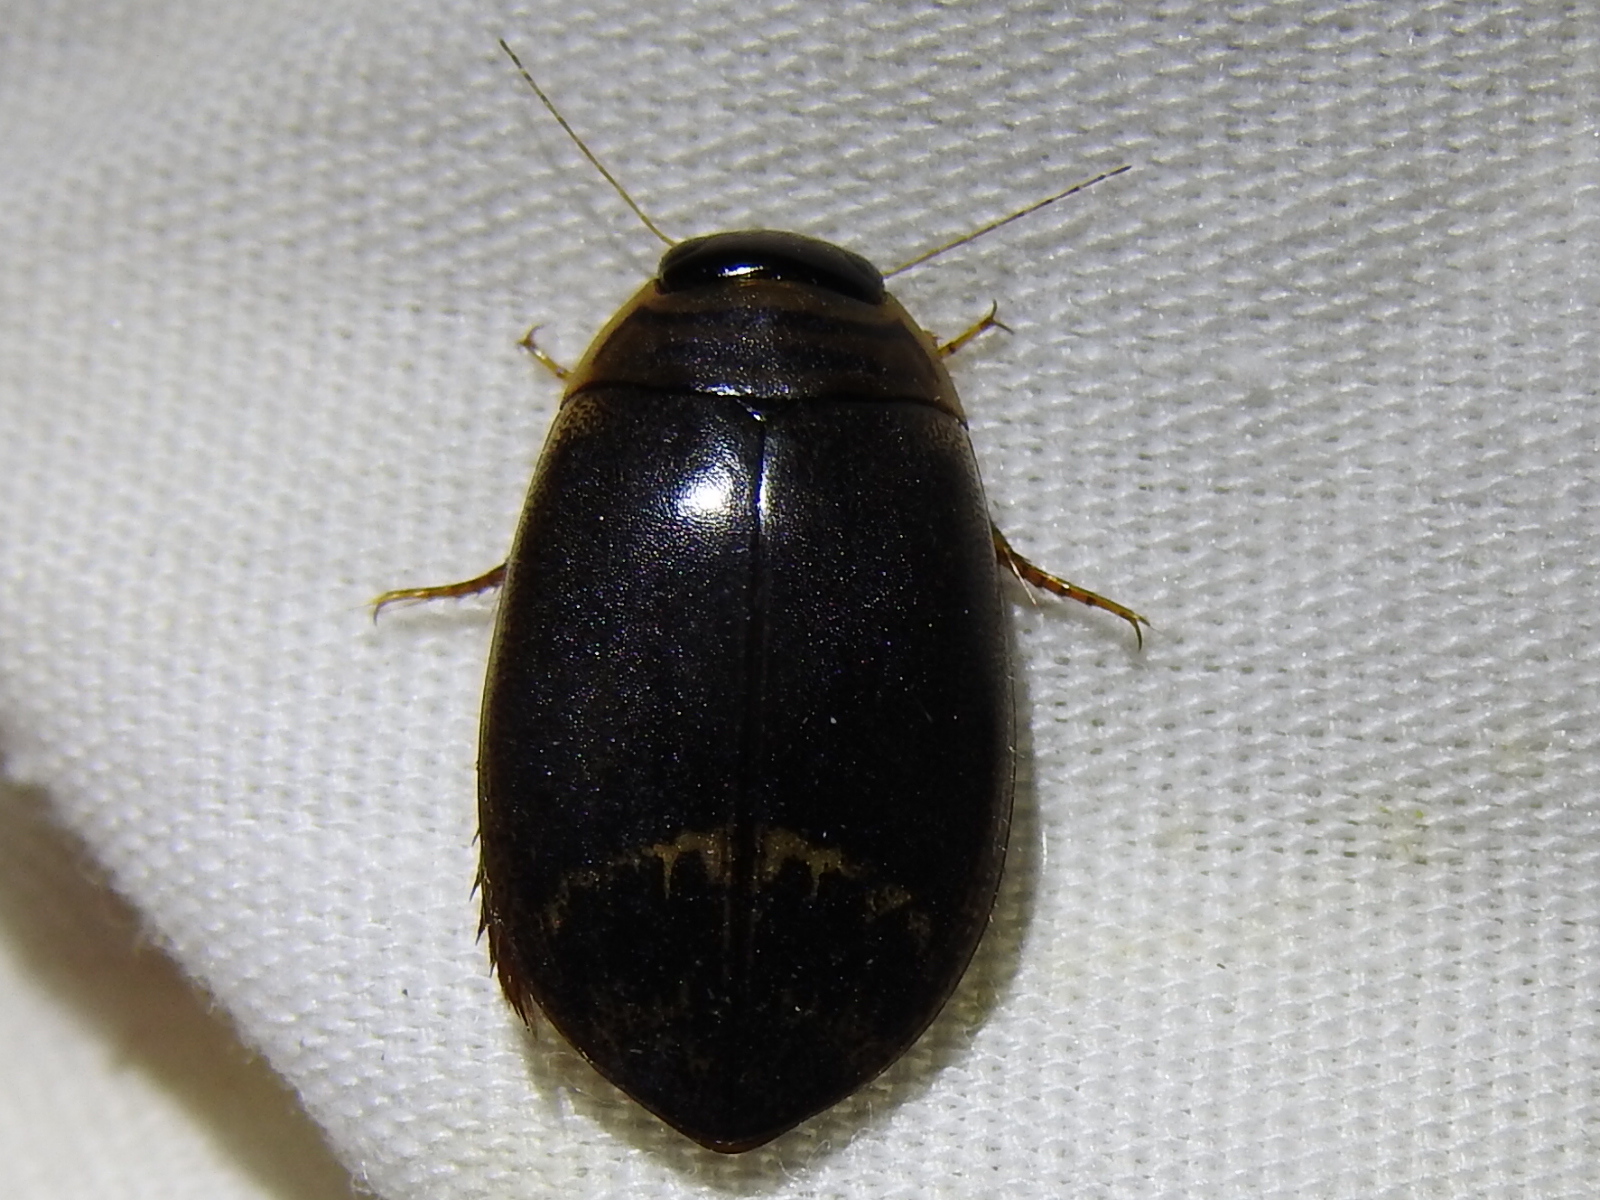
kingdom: Animalia
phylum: Arthropoda
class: Insecta
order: Coleoptera
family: Dytiscidae
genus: Acilius
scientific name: Acilius fraternus
